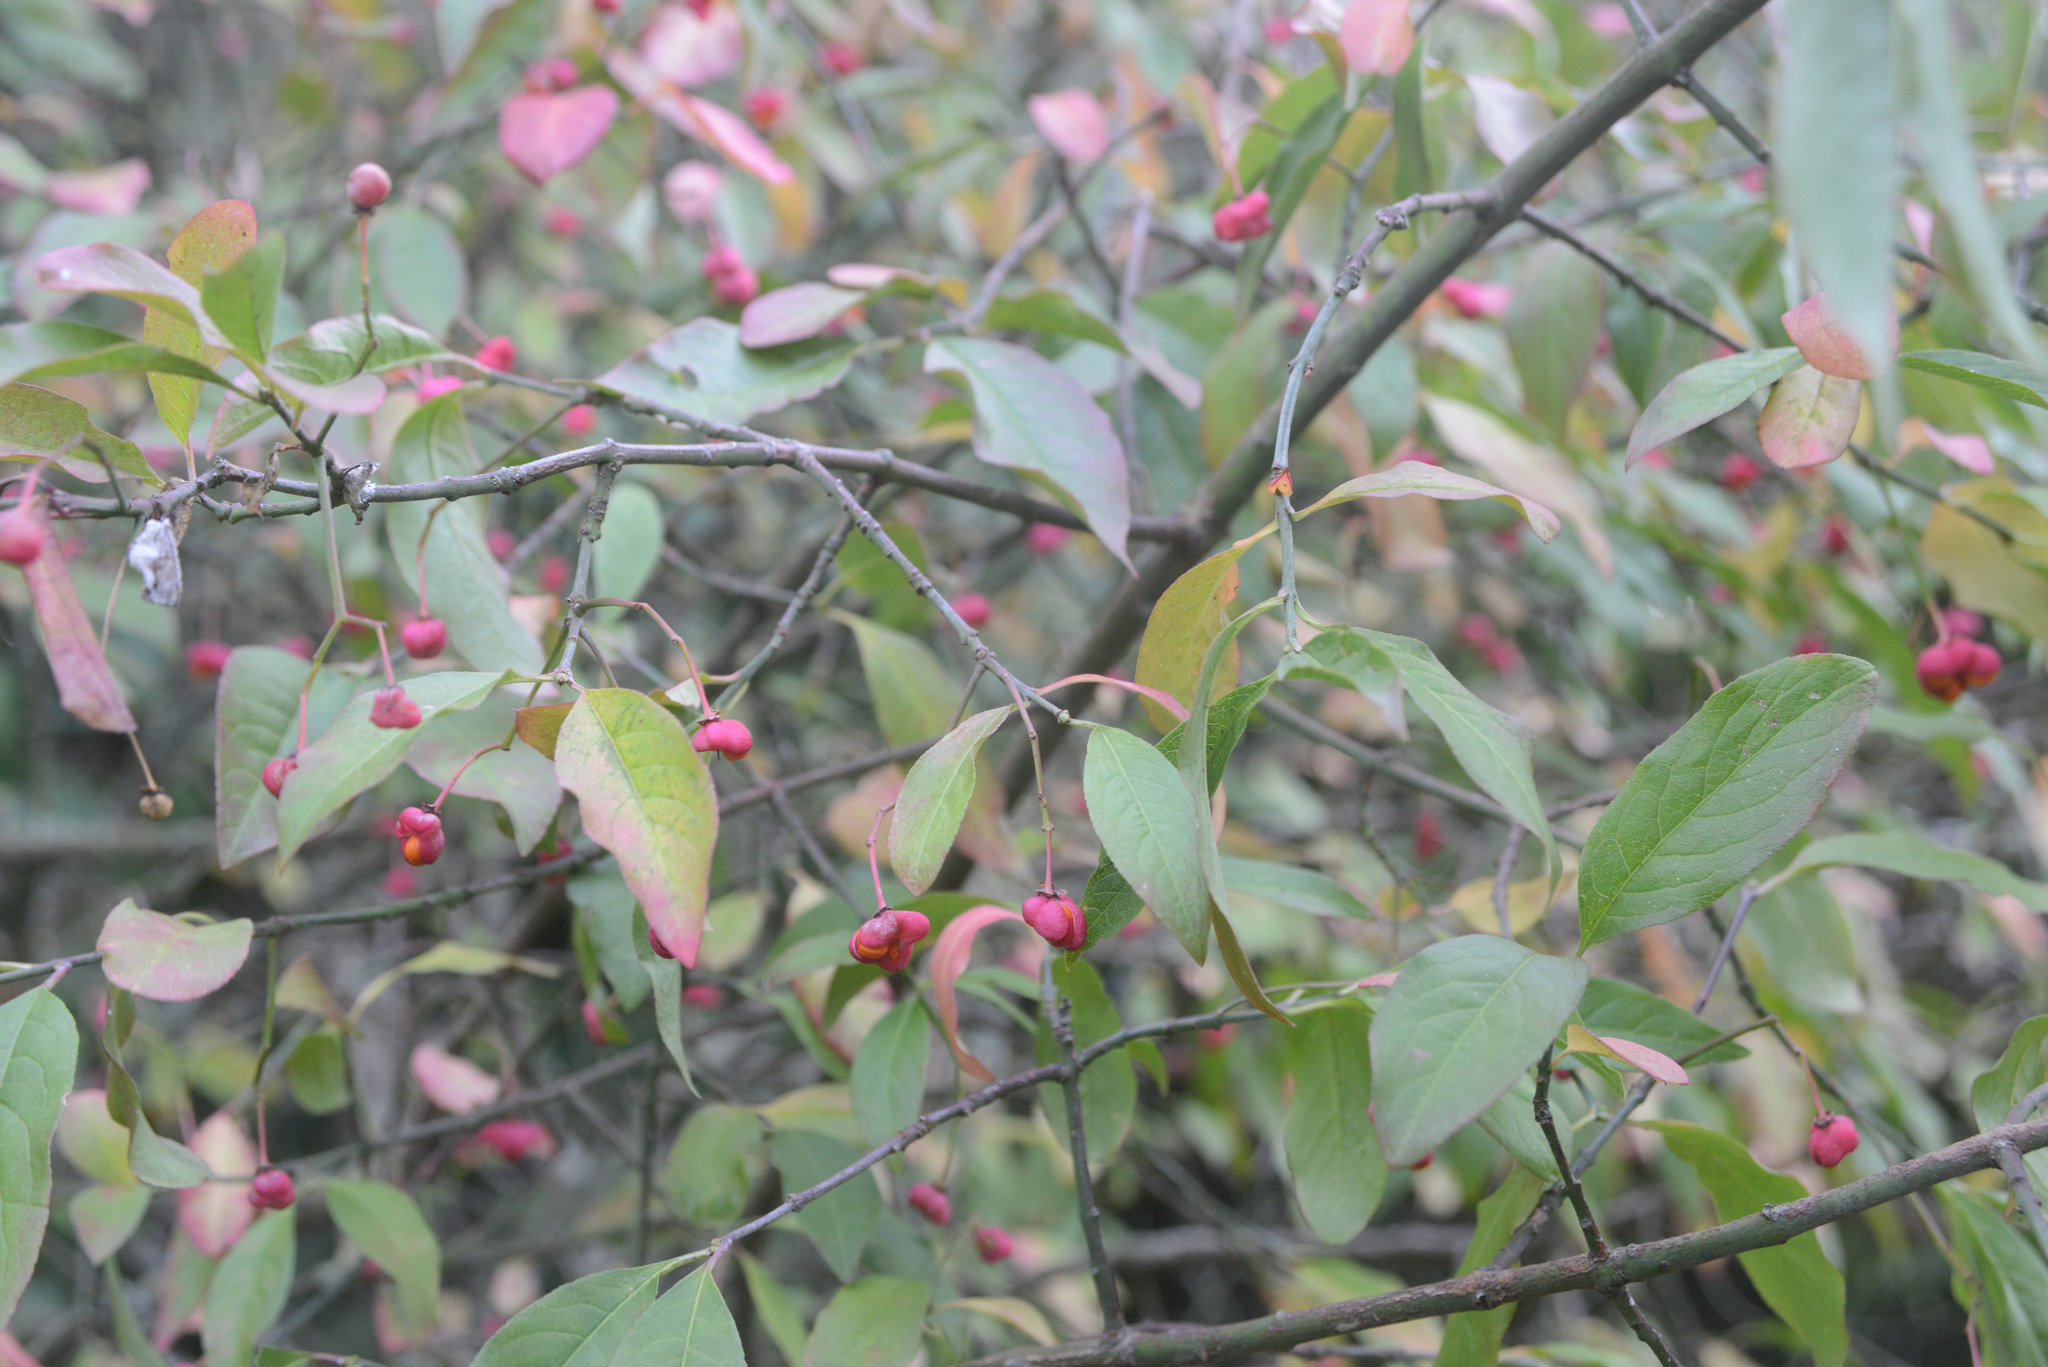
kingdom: Plantae
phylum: Tracheophyta
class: Magnoliopsida
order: Celastrales
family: Celastraceae
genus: Euonymus
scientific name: Euonymus europaeus
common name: Spindle
